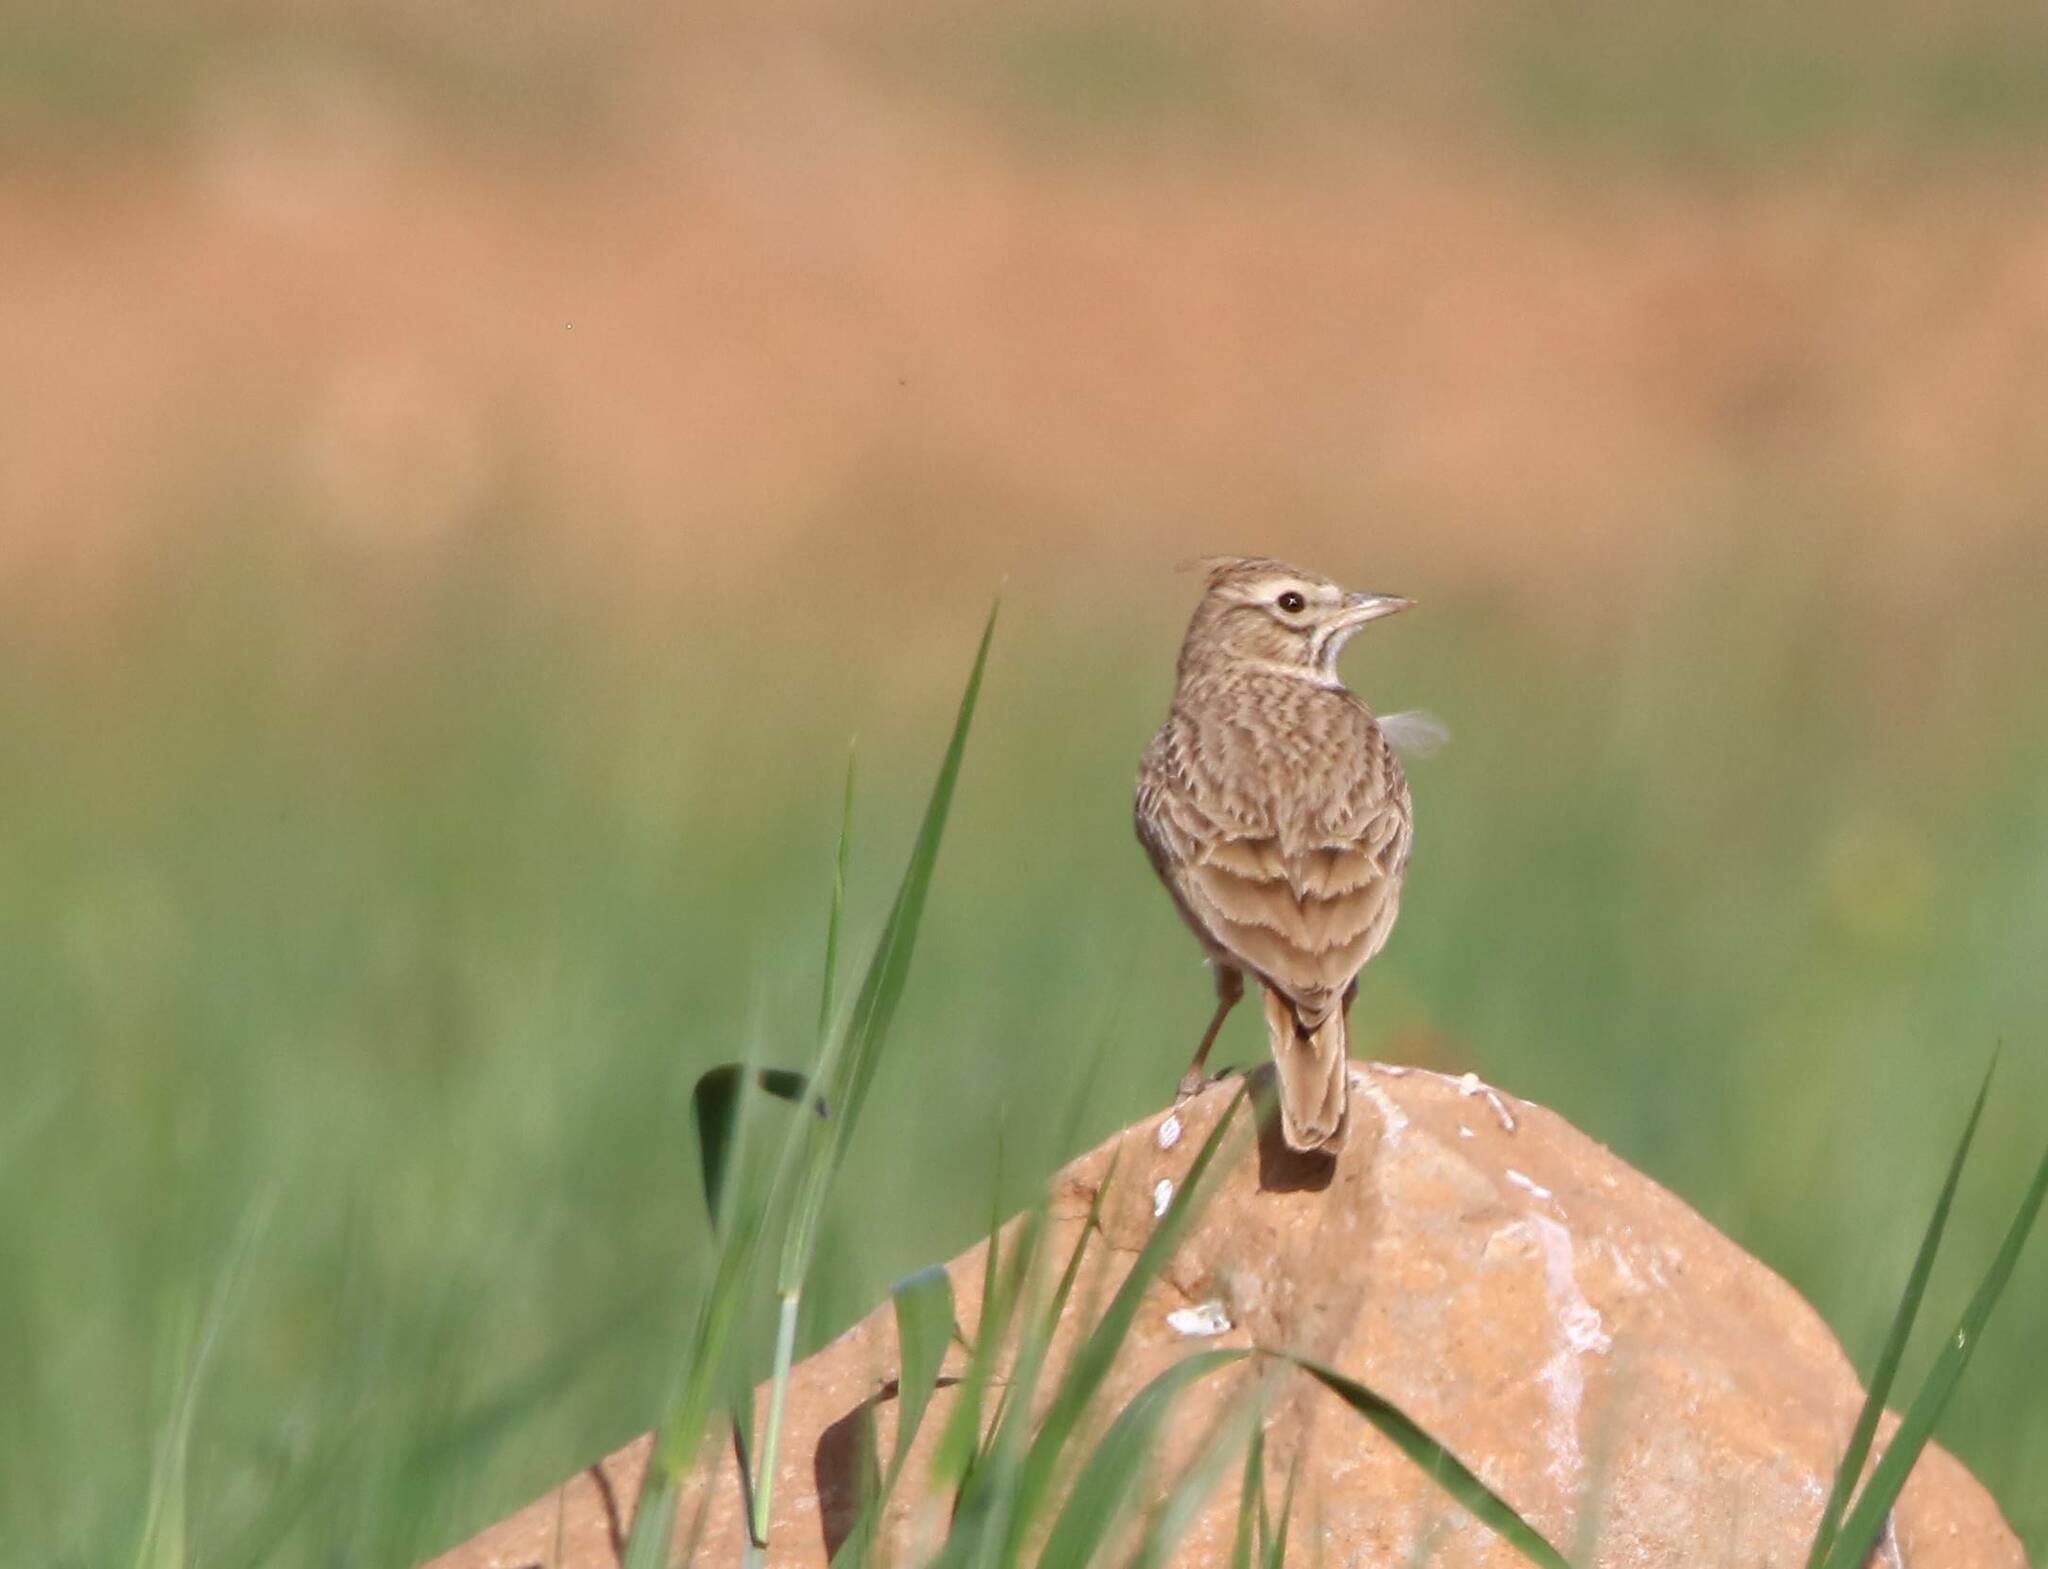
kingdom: Animalia
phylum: Chordata
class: Aves
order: Passeriformes
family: Alaudidae
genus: Galerida
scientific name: Galerida cristata
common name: Crested lark
